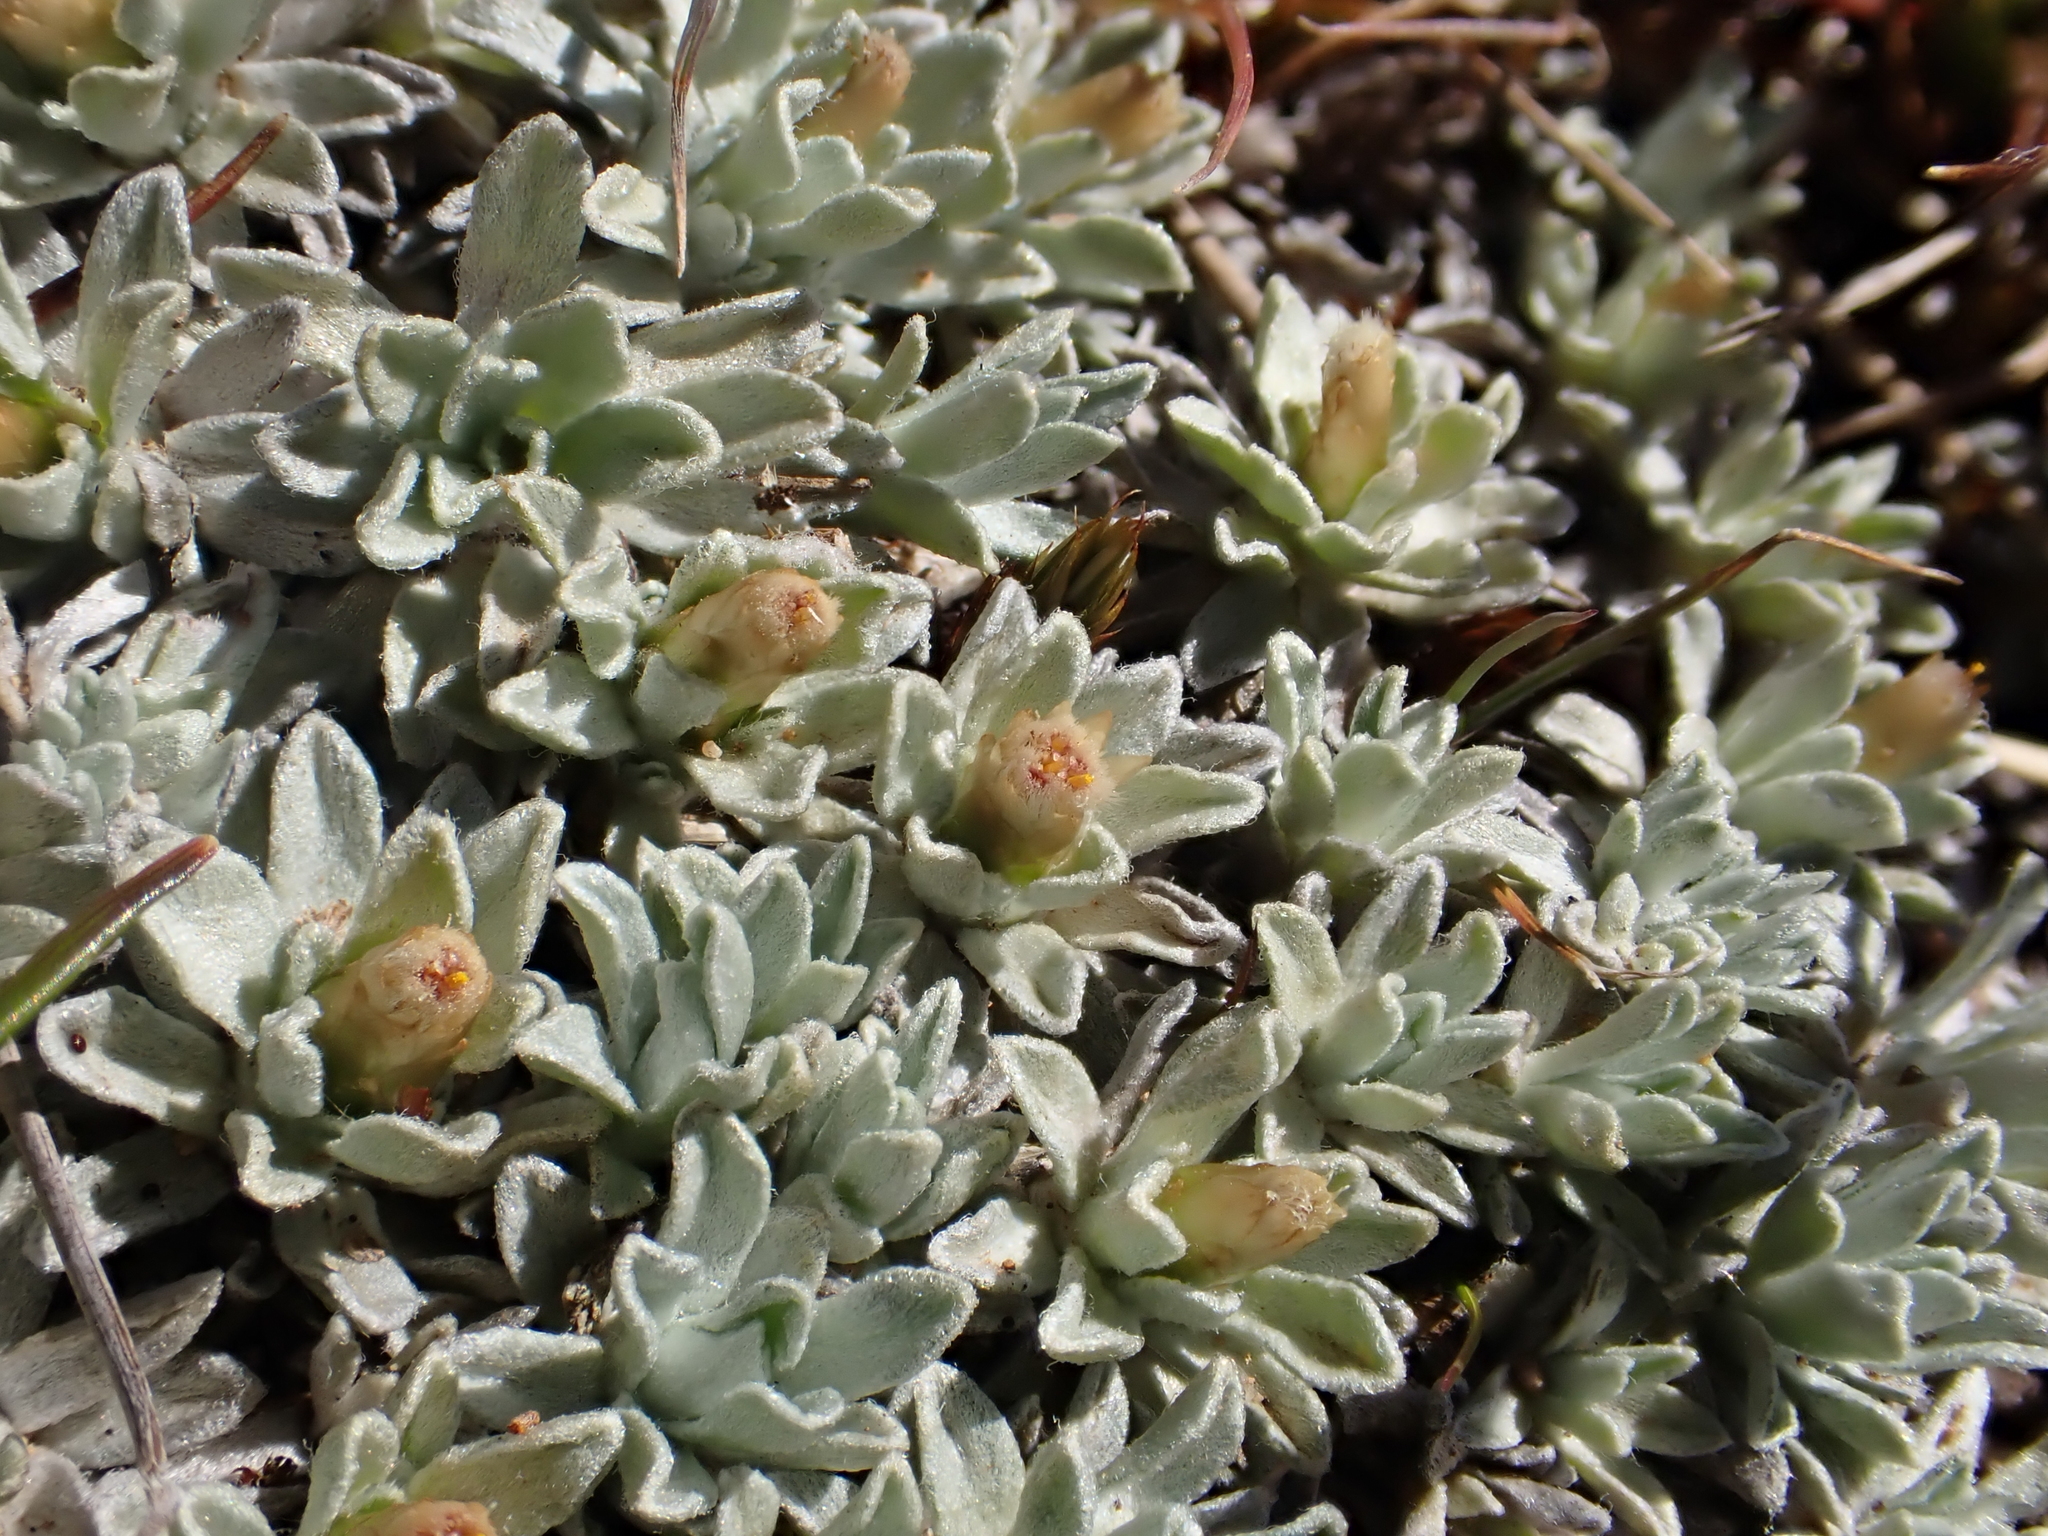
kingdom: Plantae
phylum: Tracheophyta
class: Magnoliopsida
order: Asterales
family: Asteraceae
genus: Argyrotegium
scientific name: Argyrotegium nitidulum
